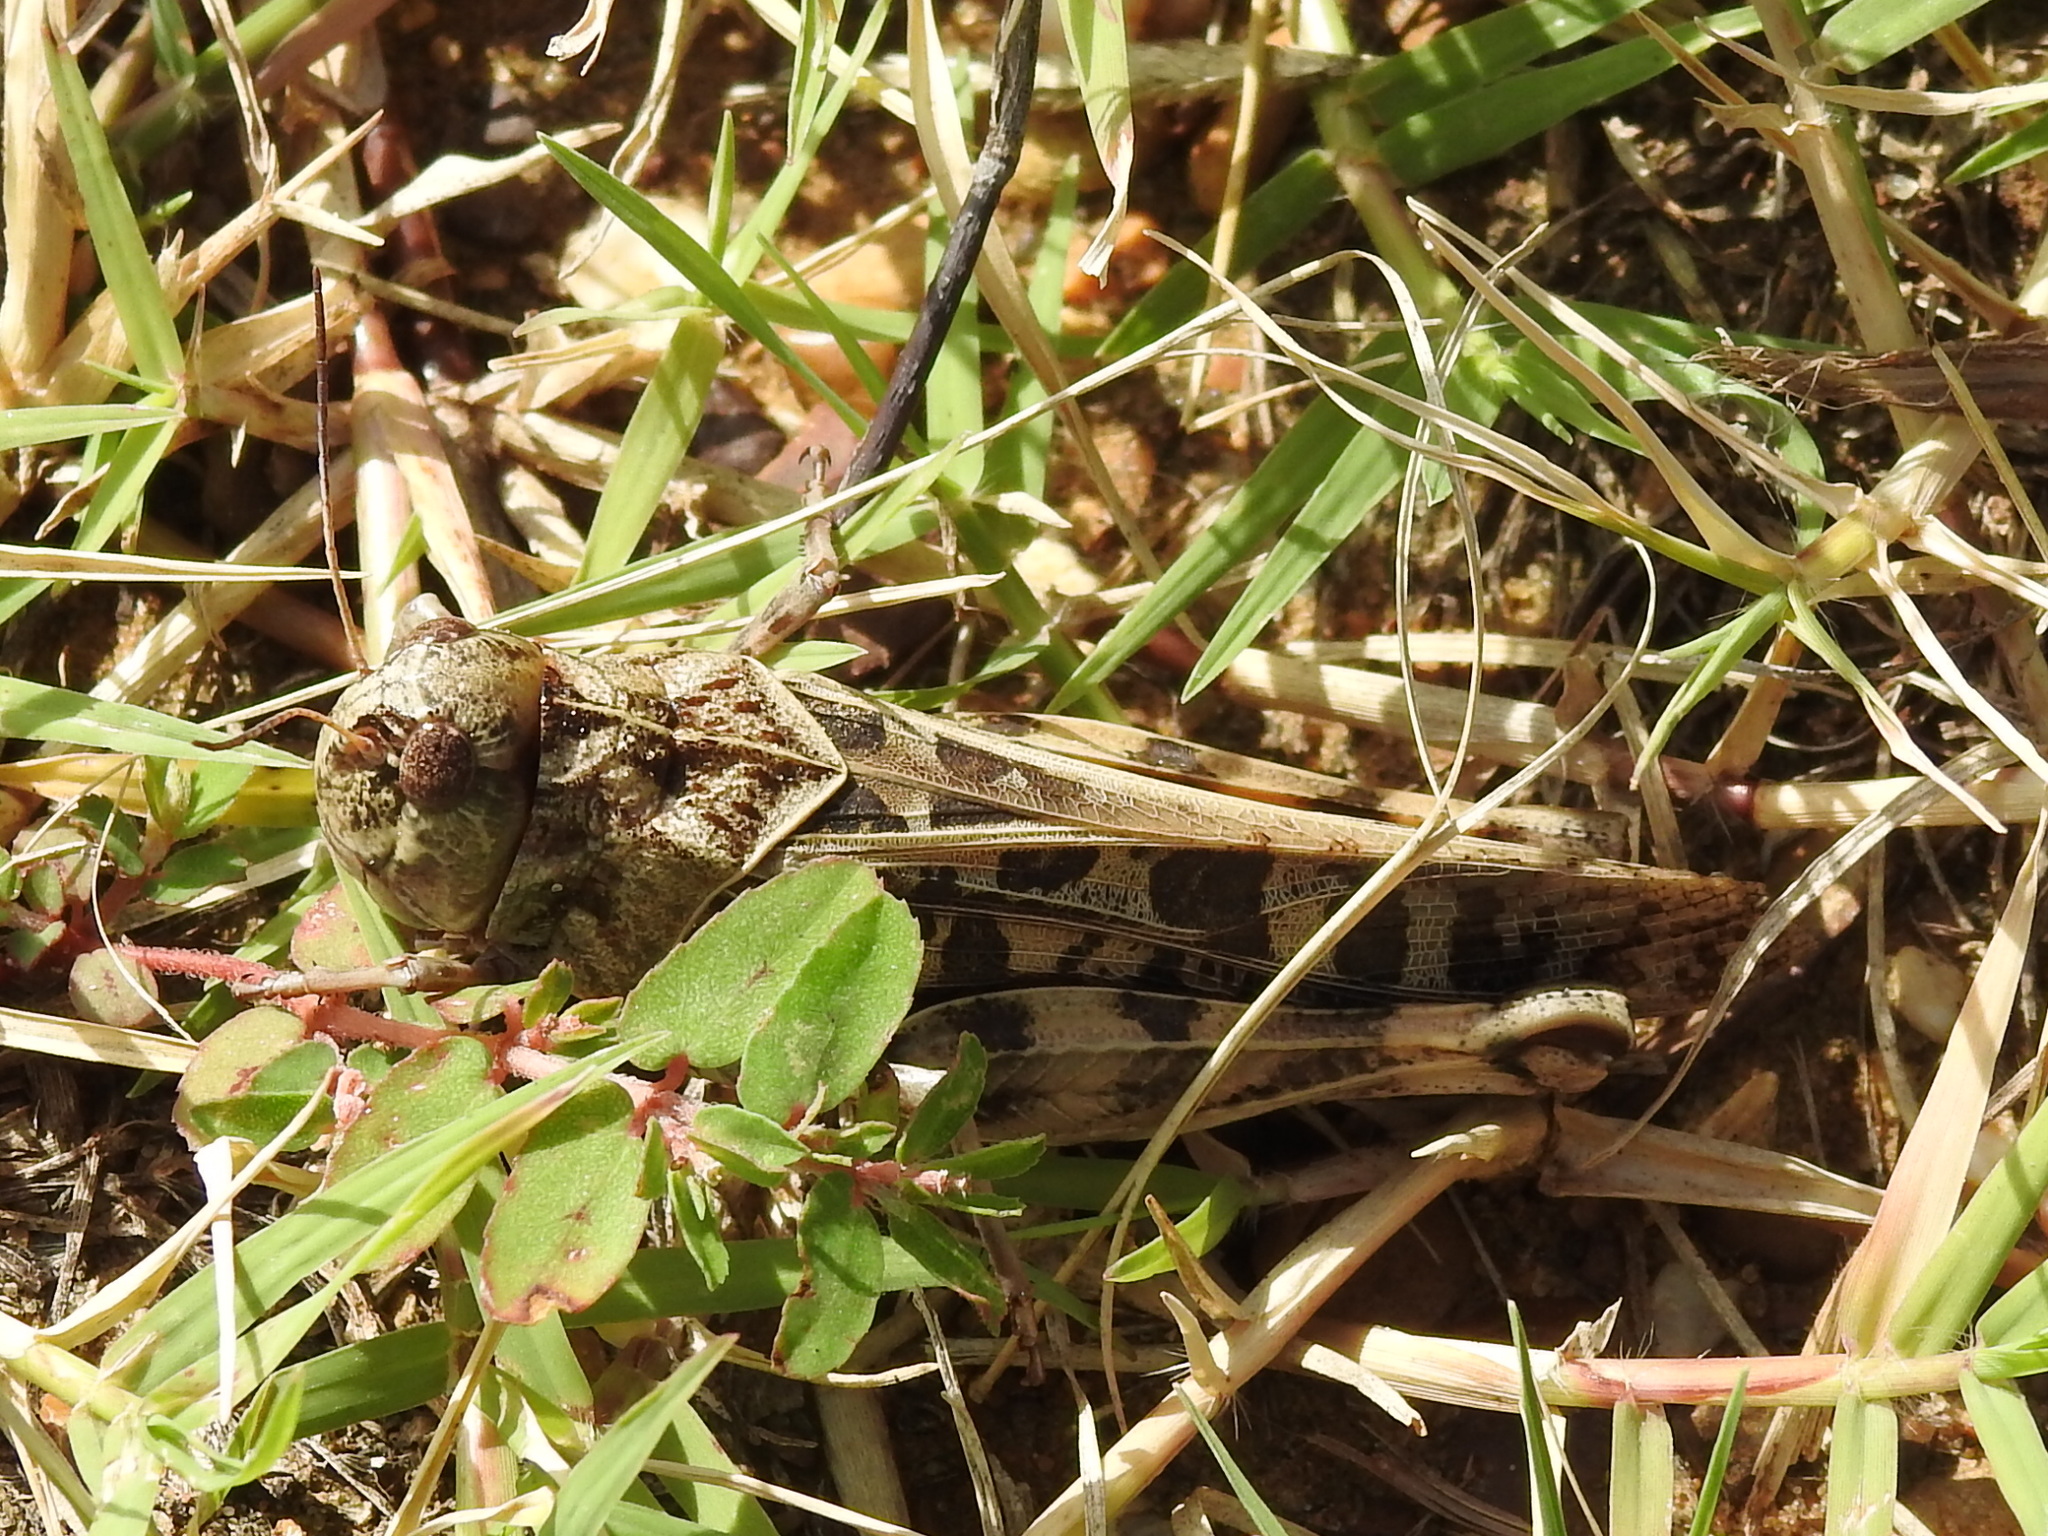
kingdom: Animalia
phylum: Arthropoda
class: Insecta
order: Orthoptera
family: Acrididae
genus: Hippiscus
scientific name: Hippiscus ocelote
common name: Wrinkled grasshopper
